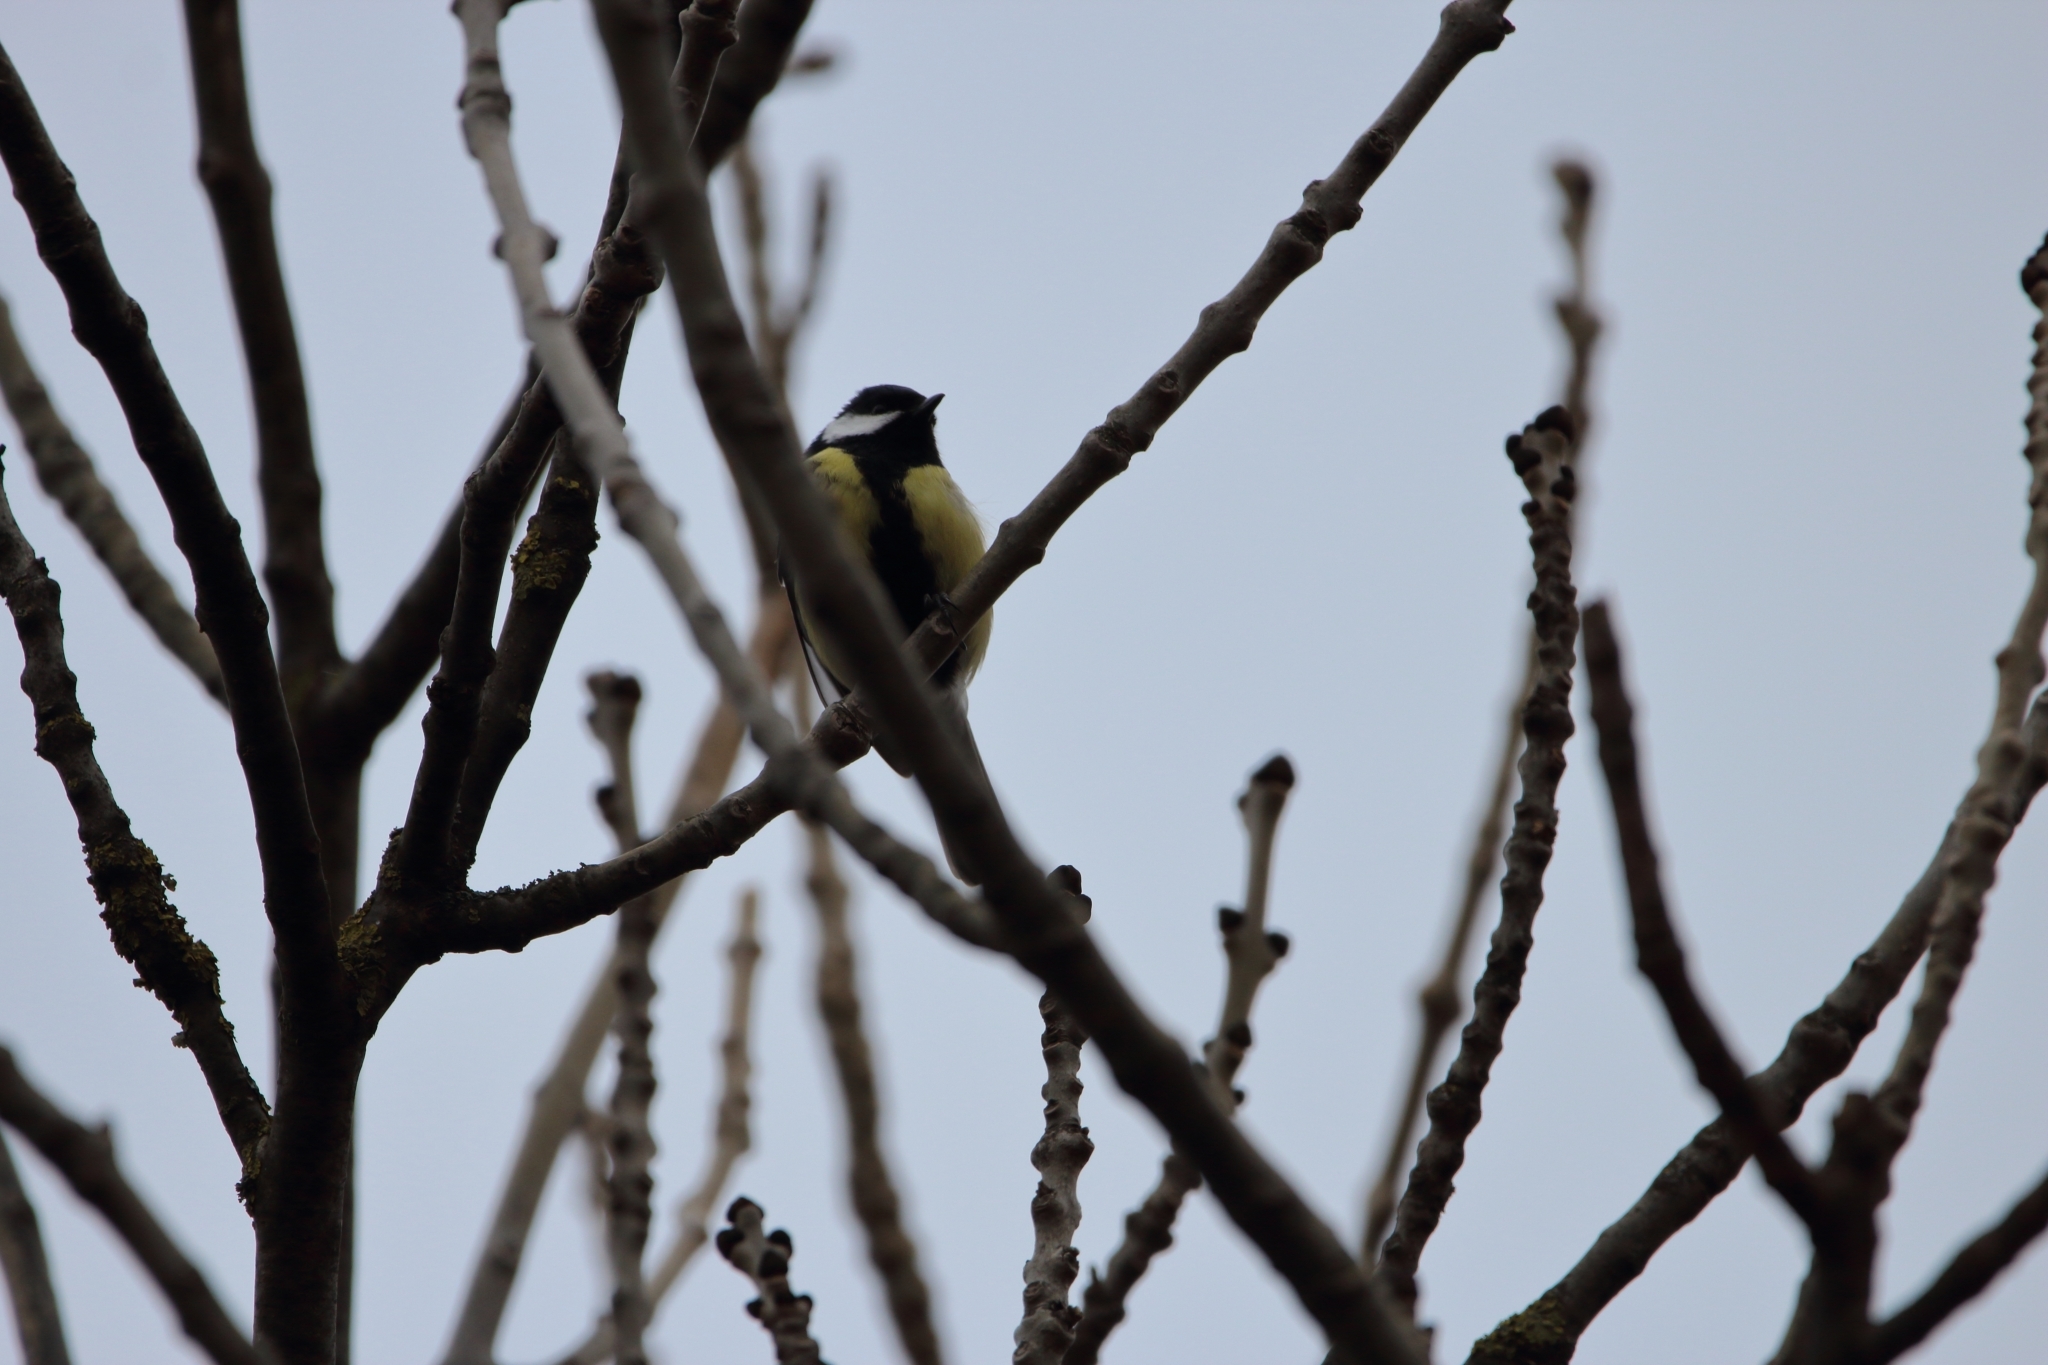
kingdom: Animalia
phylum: Chordata
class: Aves
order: Passeriformes
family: Paridae
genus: Parus
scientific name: Parus major
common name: Great tit
